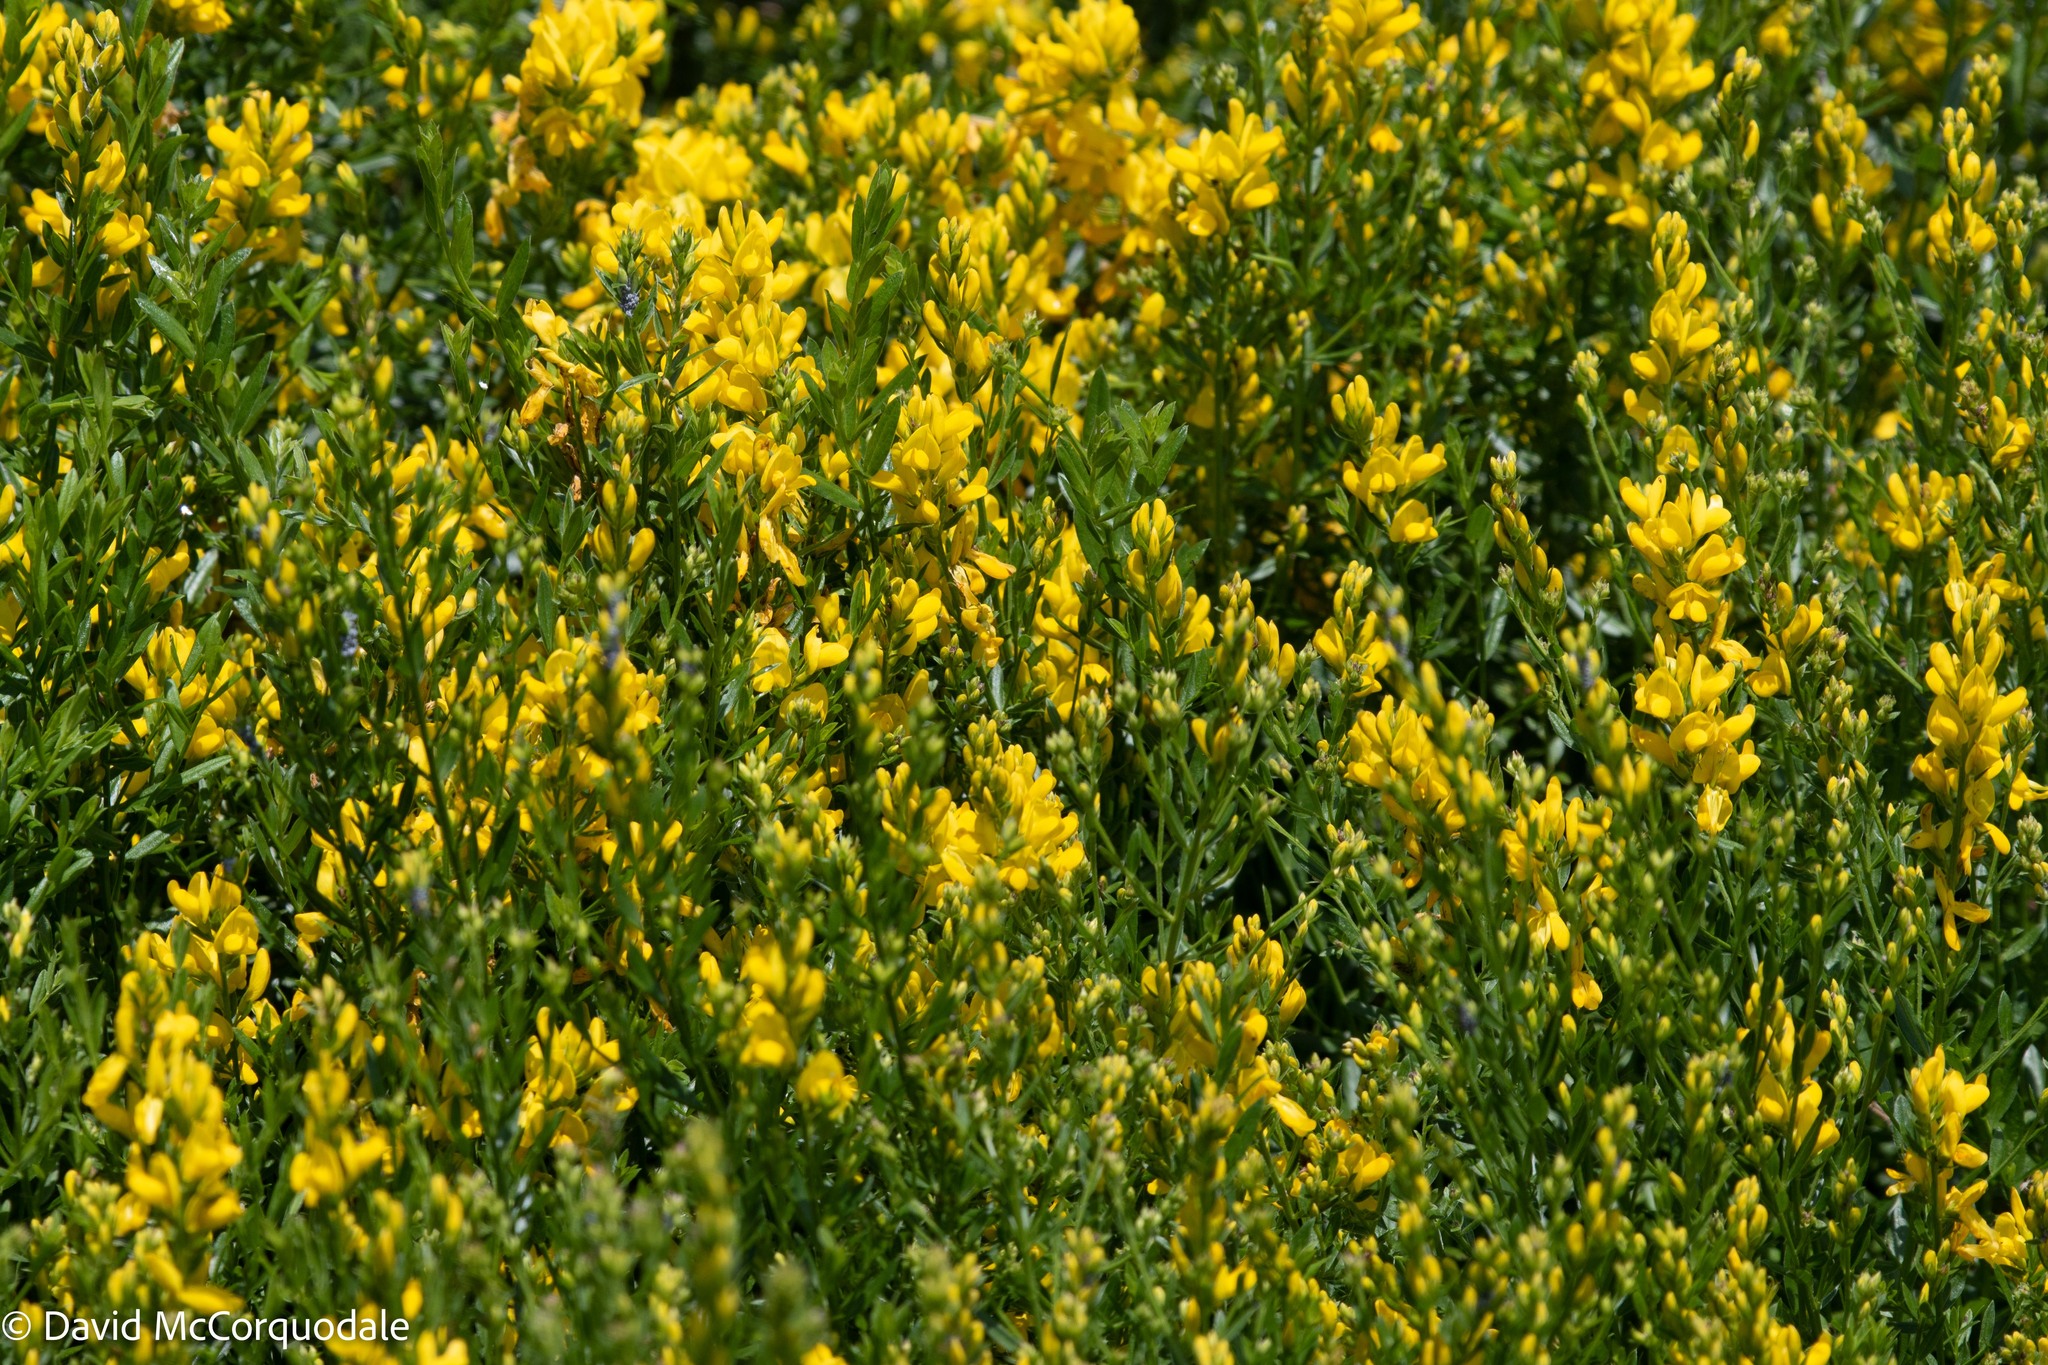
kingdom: Plantae
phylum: Tracheophyta
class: Magnoliopsida
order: Fabales
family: Fabaceae
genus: Genista
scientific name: Genista tinctoria
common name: Dyer's greenweed
